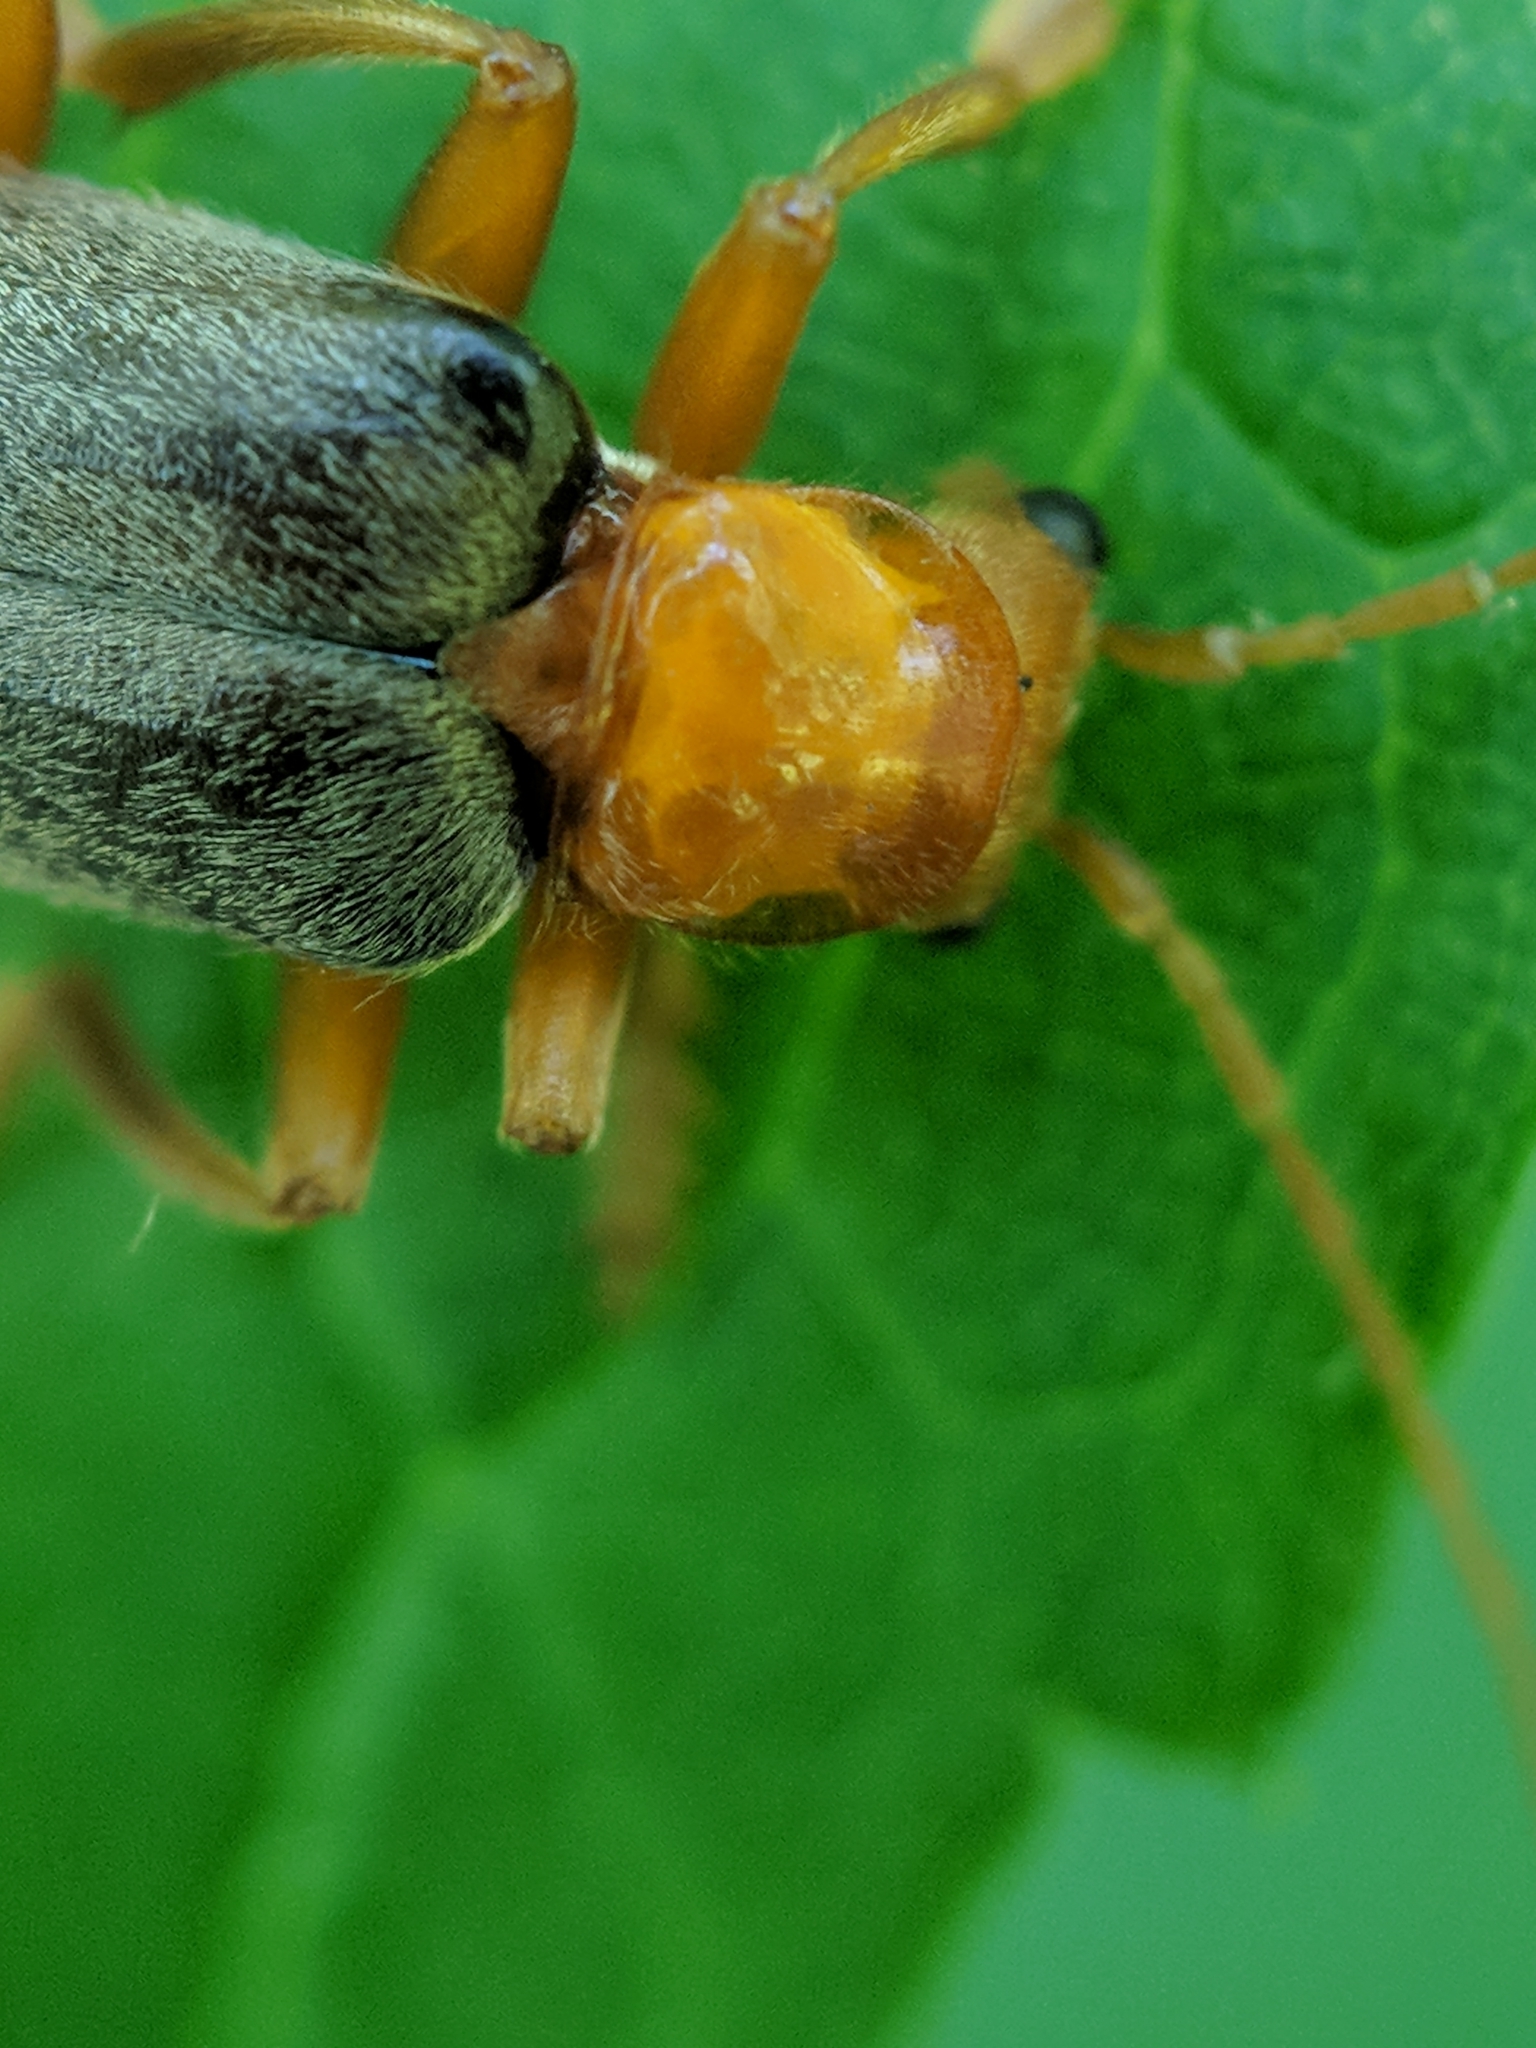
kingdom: Animalia
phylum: Arthropoda
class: Insecta
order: Coleoptera
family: Cantharidae
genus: Pacificanthia
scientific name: Pacificanthia rotundicollis
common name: Brown leatherwing beetle
